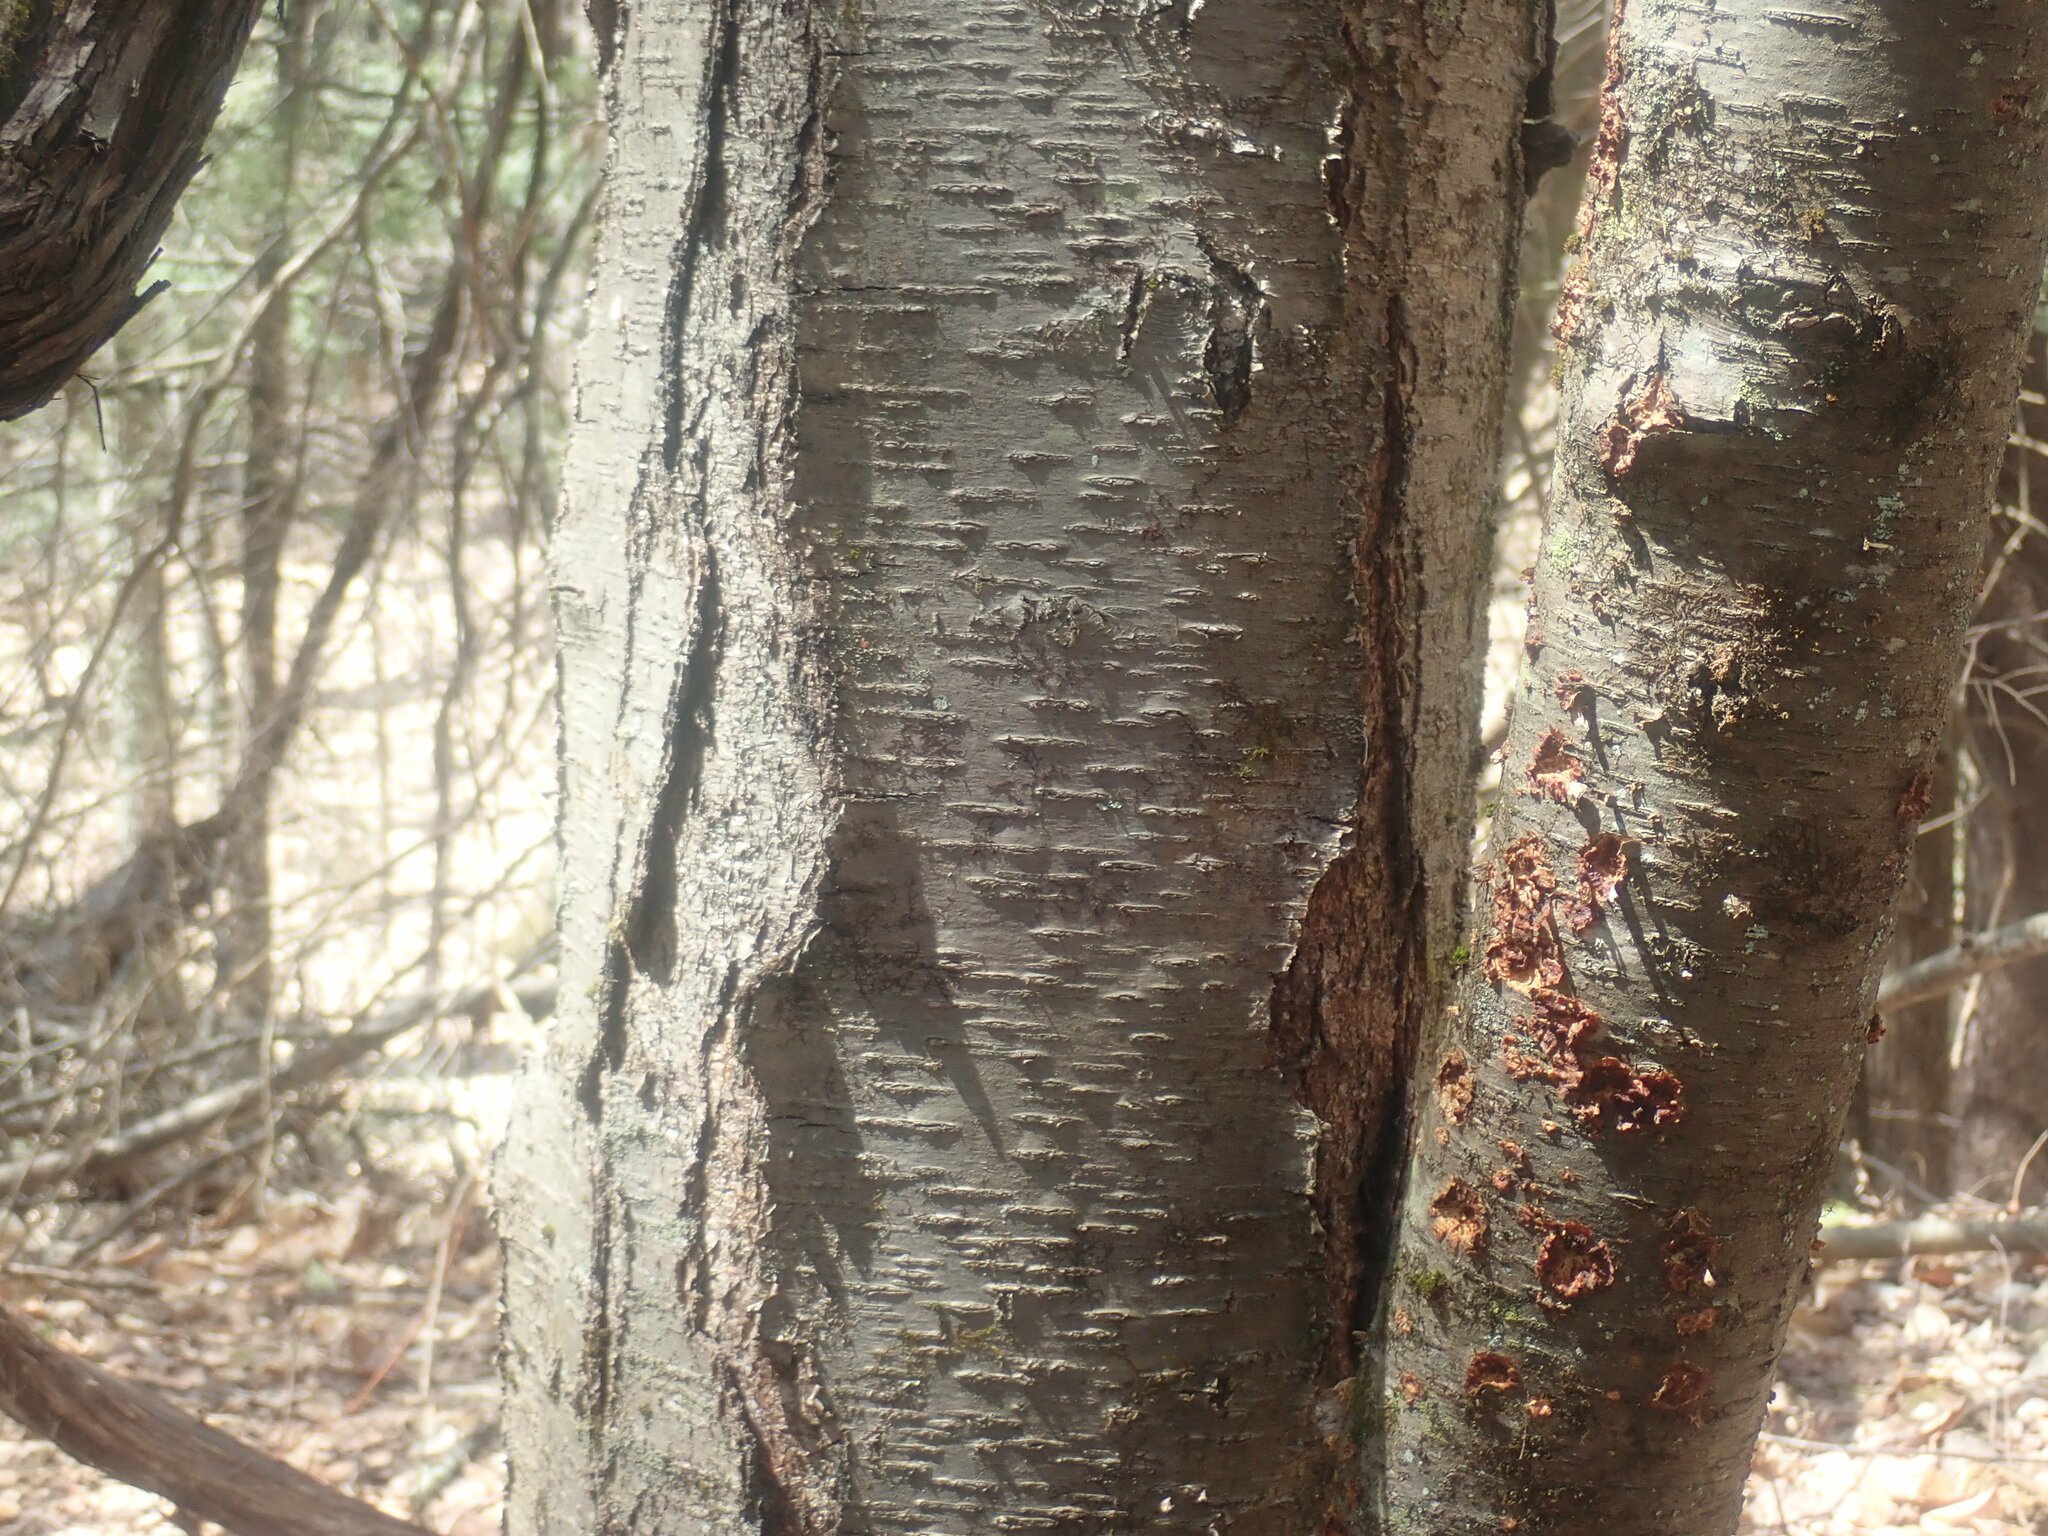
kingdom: Plantae
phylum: Tracheophyta
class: Magnoliopsida
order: Fagales
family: Betulaceae
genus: Betula
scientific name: Betula lenta
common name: Black birch
